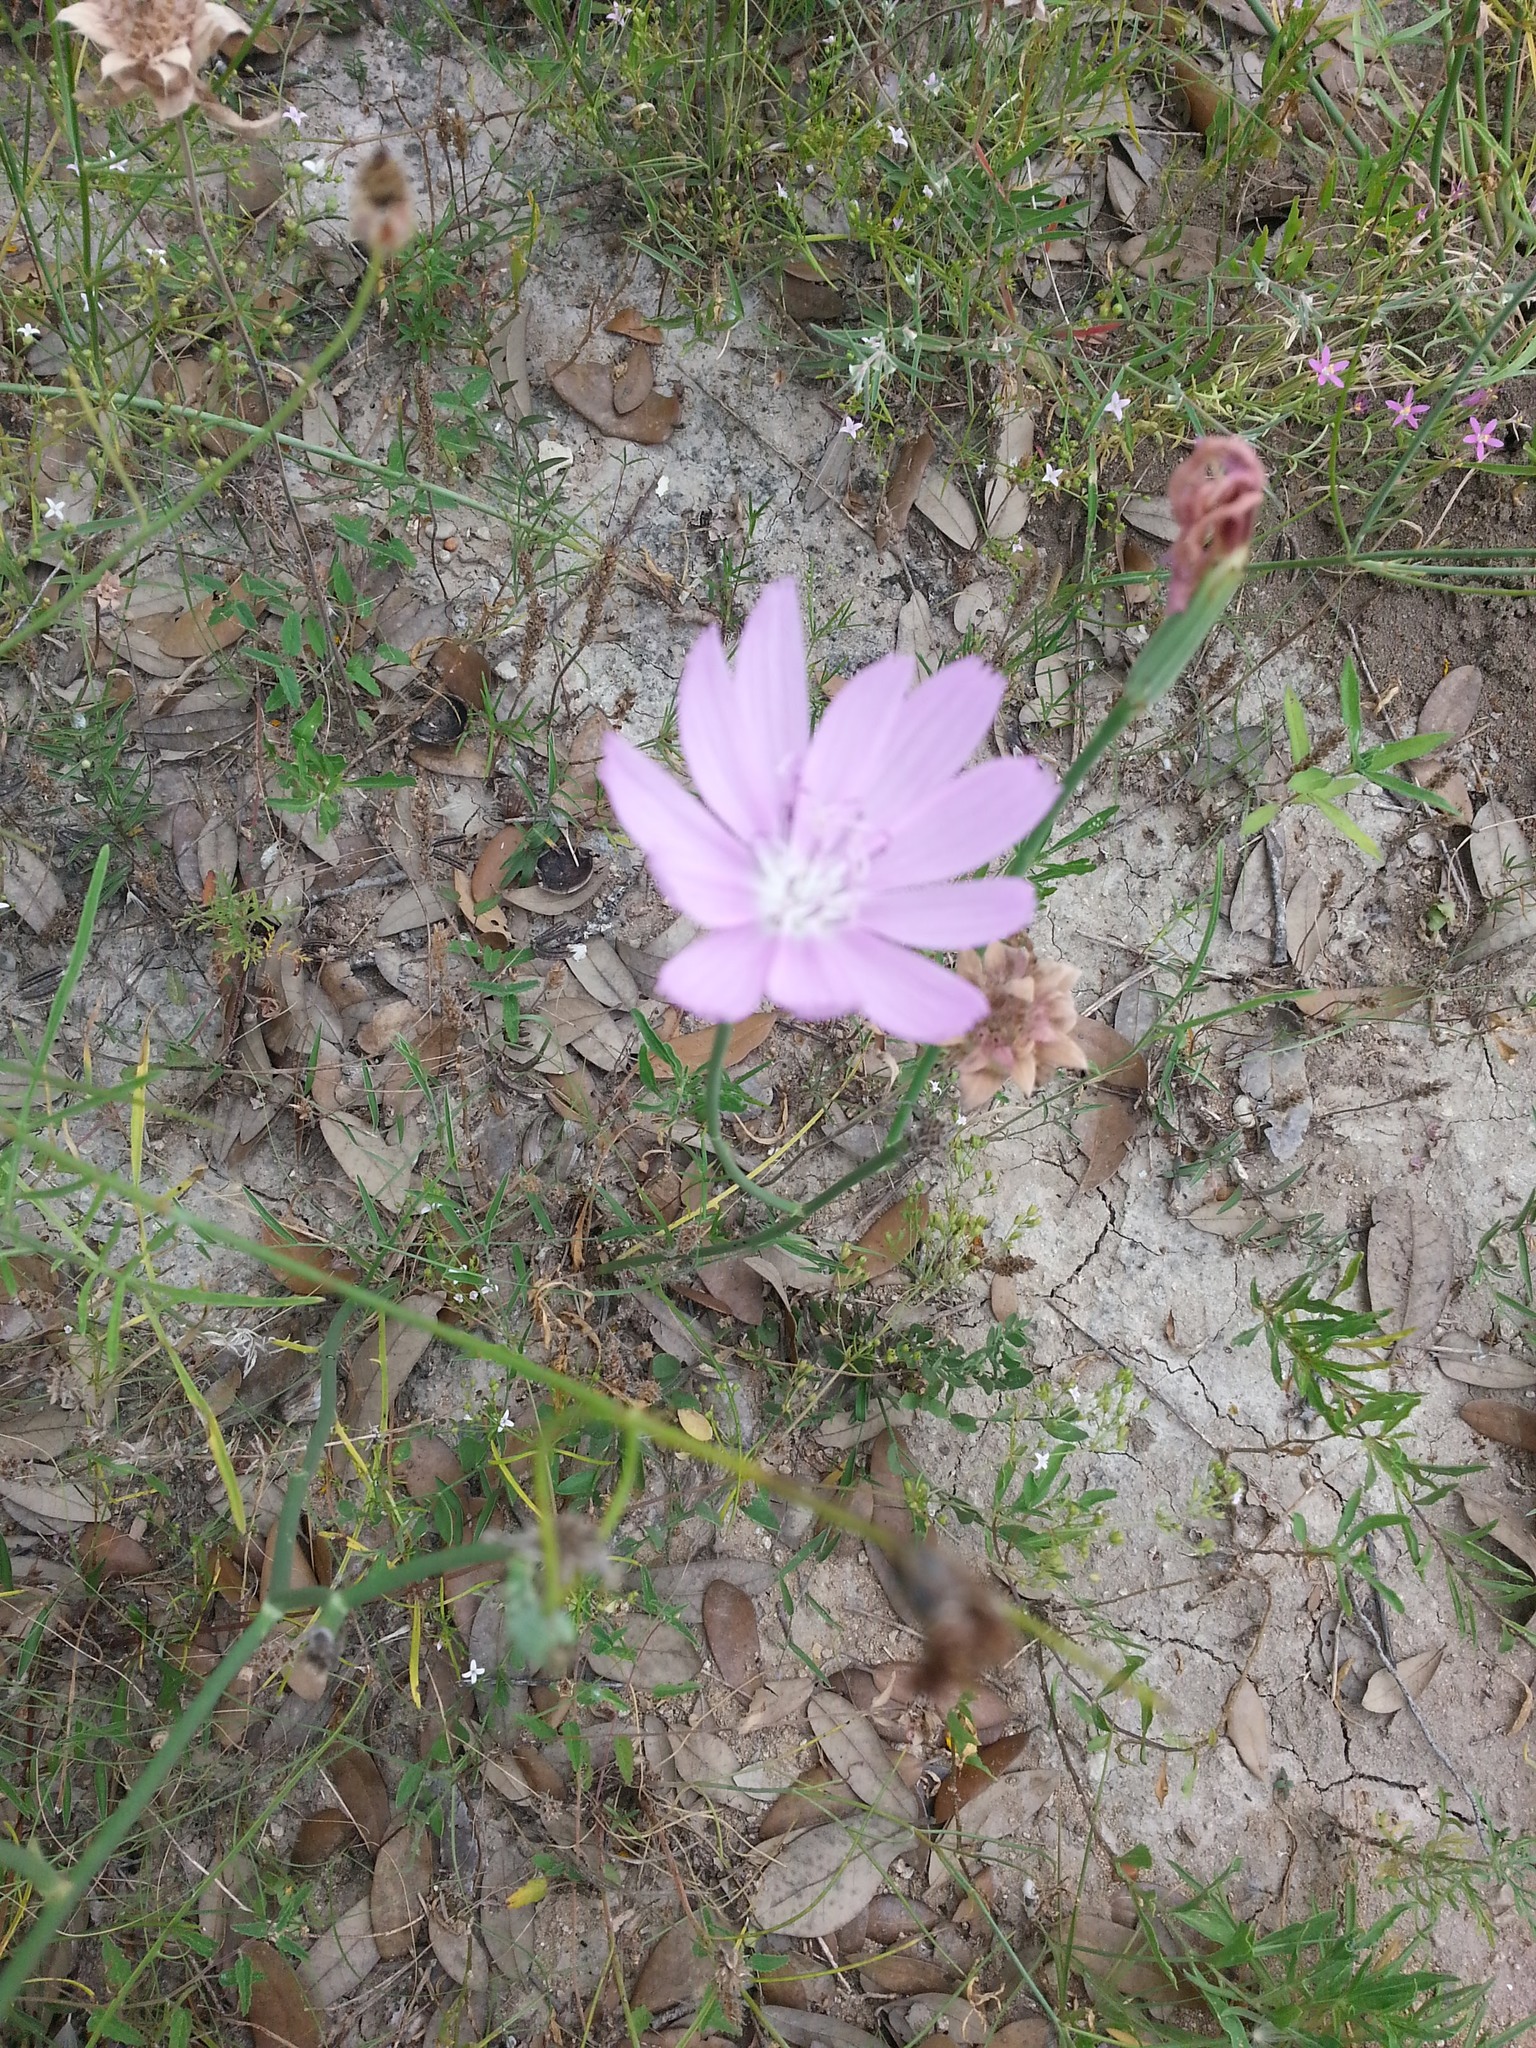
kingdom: Plantae
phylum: Tracheophyta
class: Magnoliopsida
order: Asterales
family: Asteraceae
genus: Lygodesmia
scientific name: Lygodesmia texana
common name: Texas skeleton-plant
